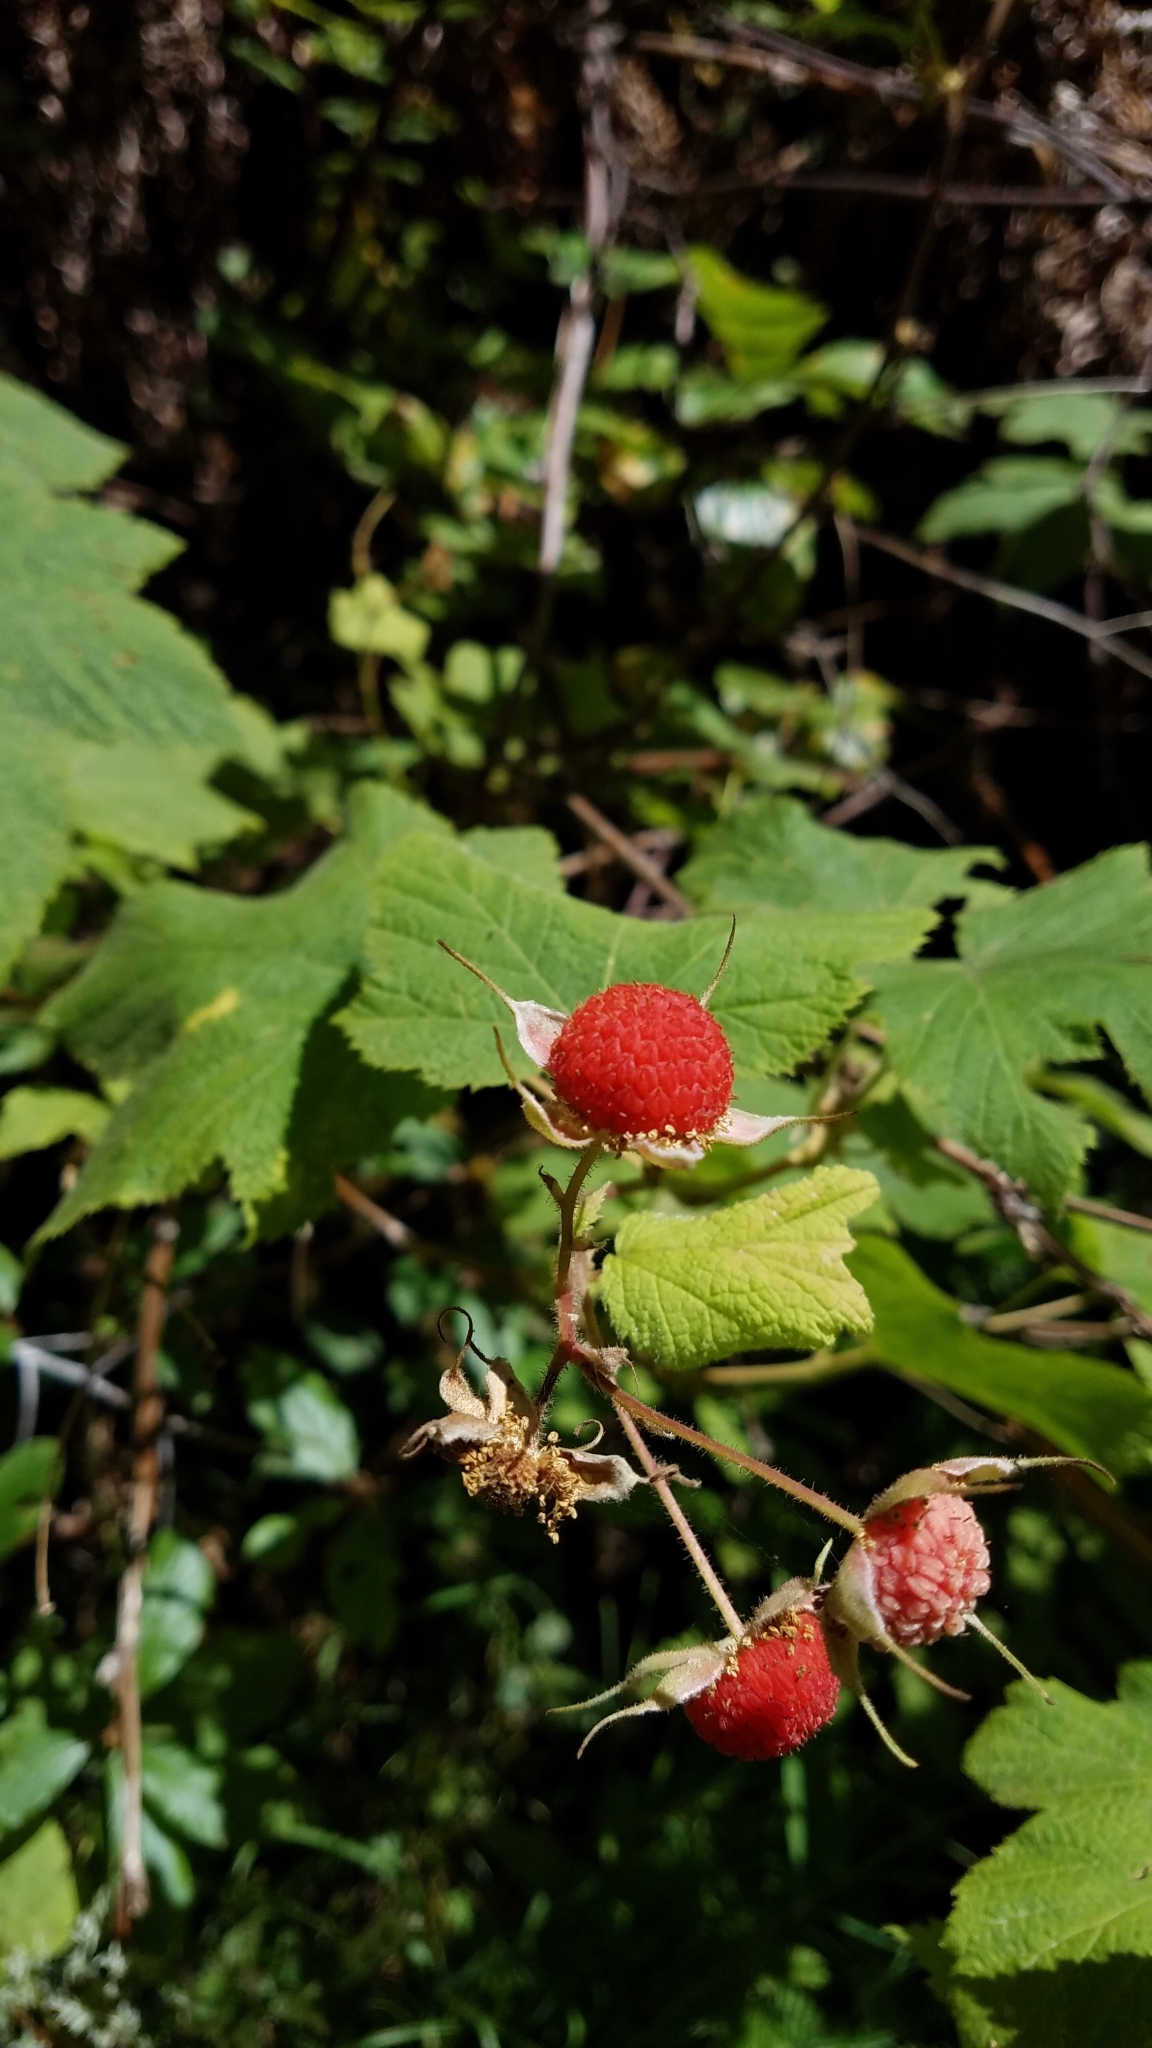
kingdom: Plantae
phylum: Tracheophyta
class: Magnoliopsida
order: Rosales
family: Rosaceae
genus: Rubus
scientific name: Rubus parviflorus
